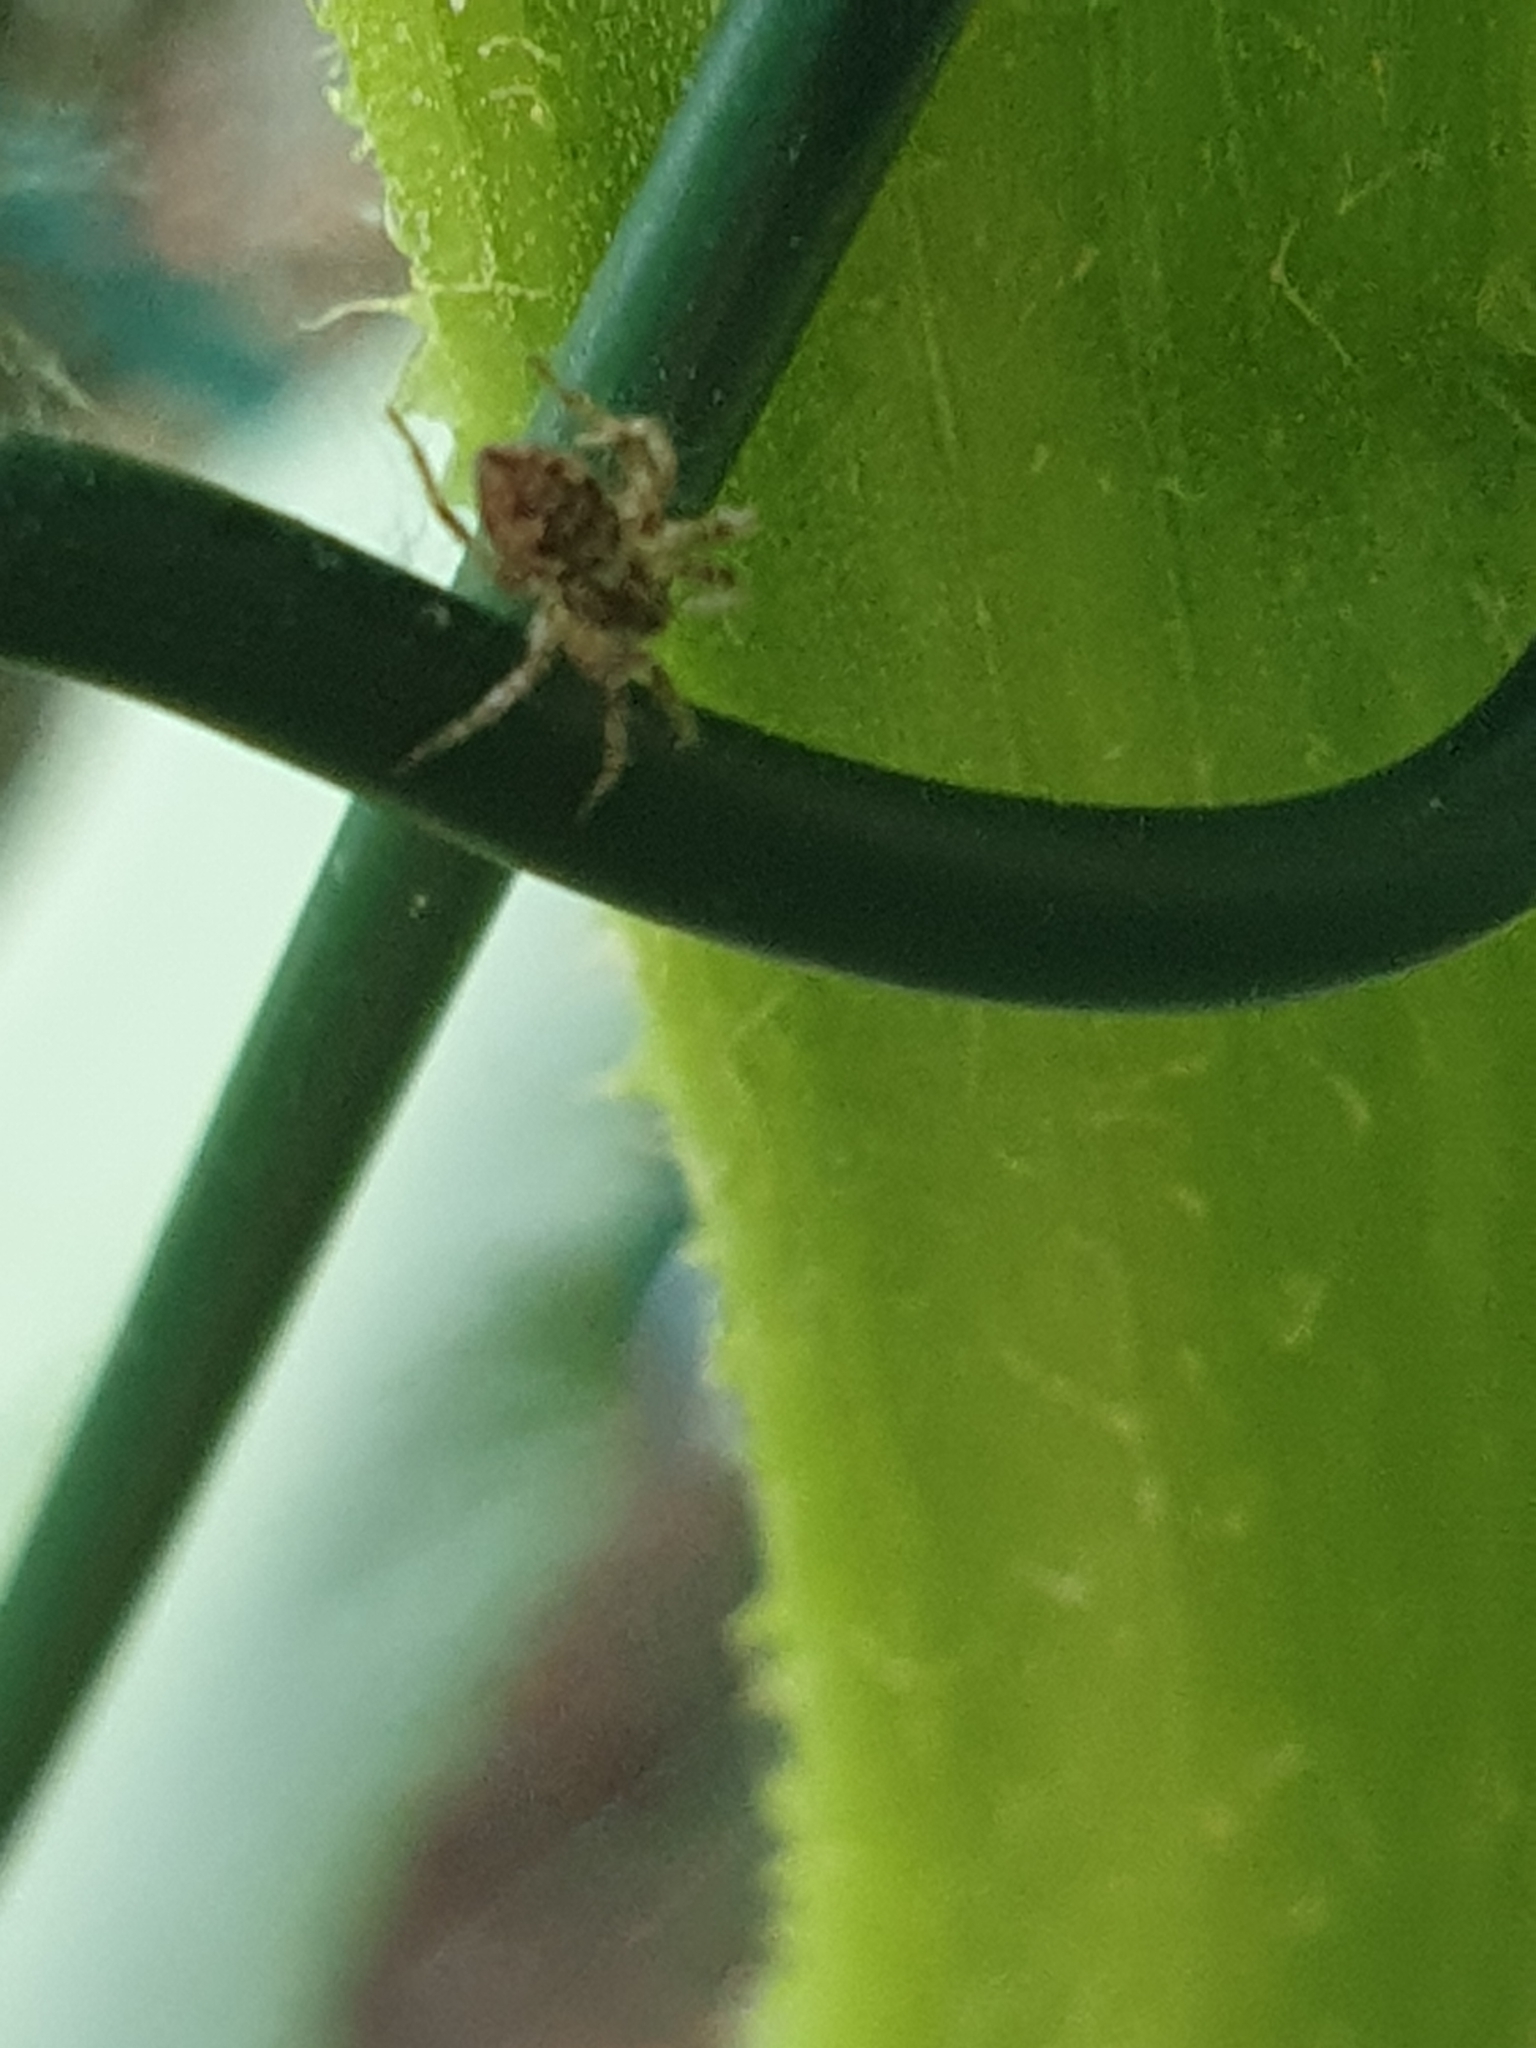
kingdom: Animalia
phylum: Arthropoda
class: Arachnida
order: Araneae
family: Pisauridae
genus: Pisaura
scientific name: Pisaura mirabilis
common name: Tent spider
